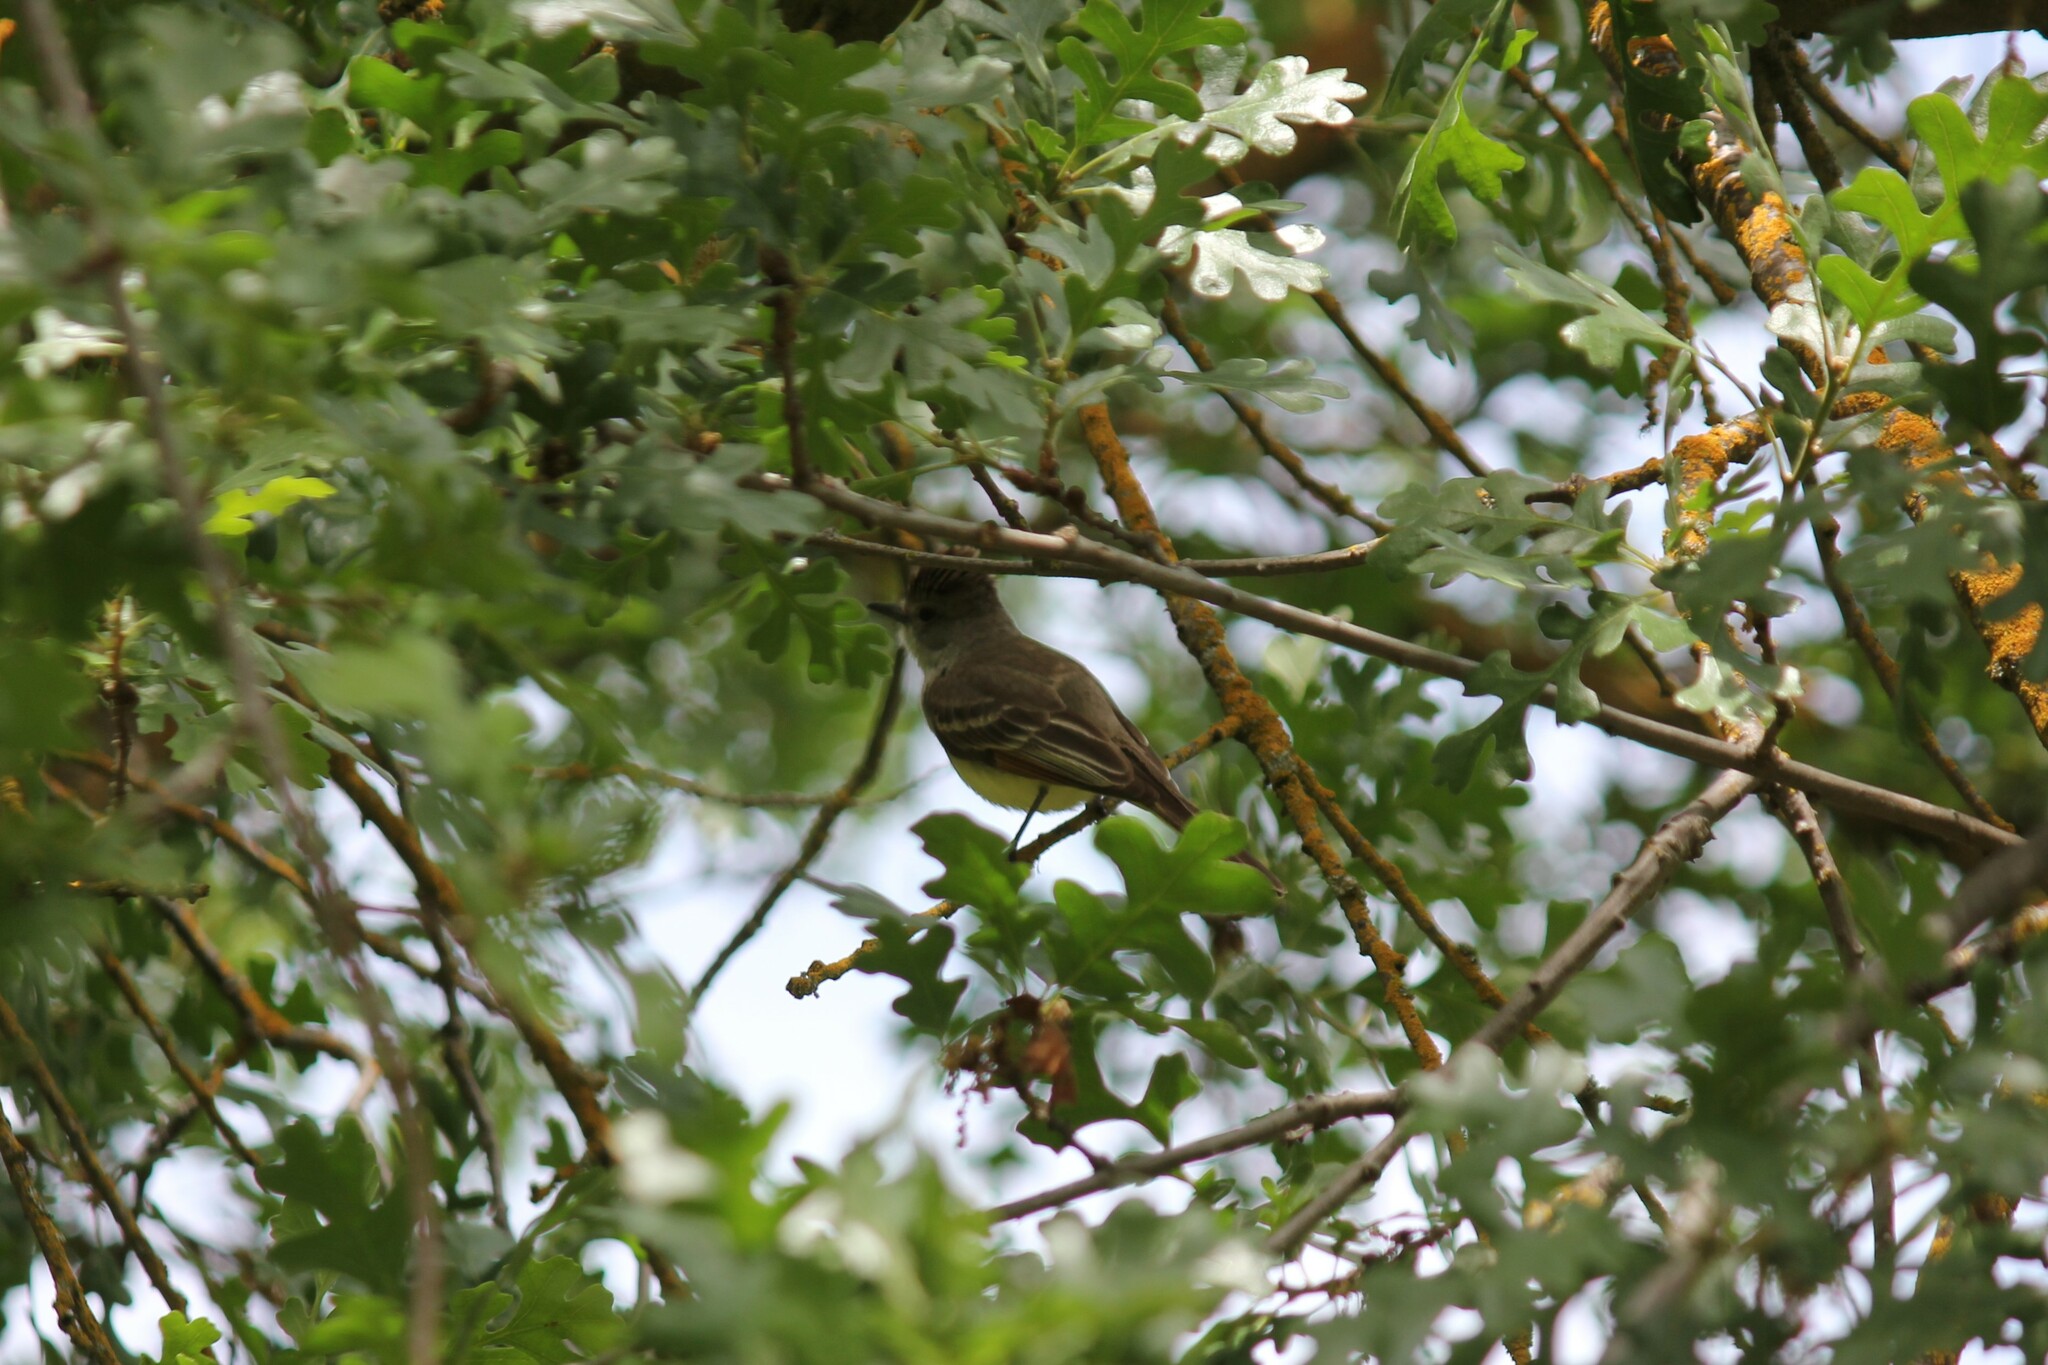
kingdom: Animalia
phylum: Chordata
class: Aves
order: Passeriformes
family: Tyrannidae
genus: Myiarchus
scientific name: Myiarchus cinerascens
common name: Ash-throated flycatcher
